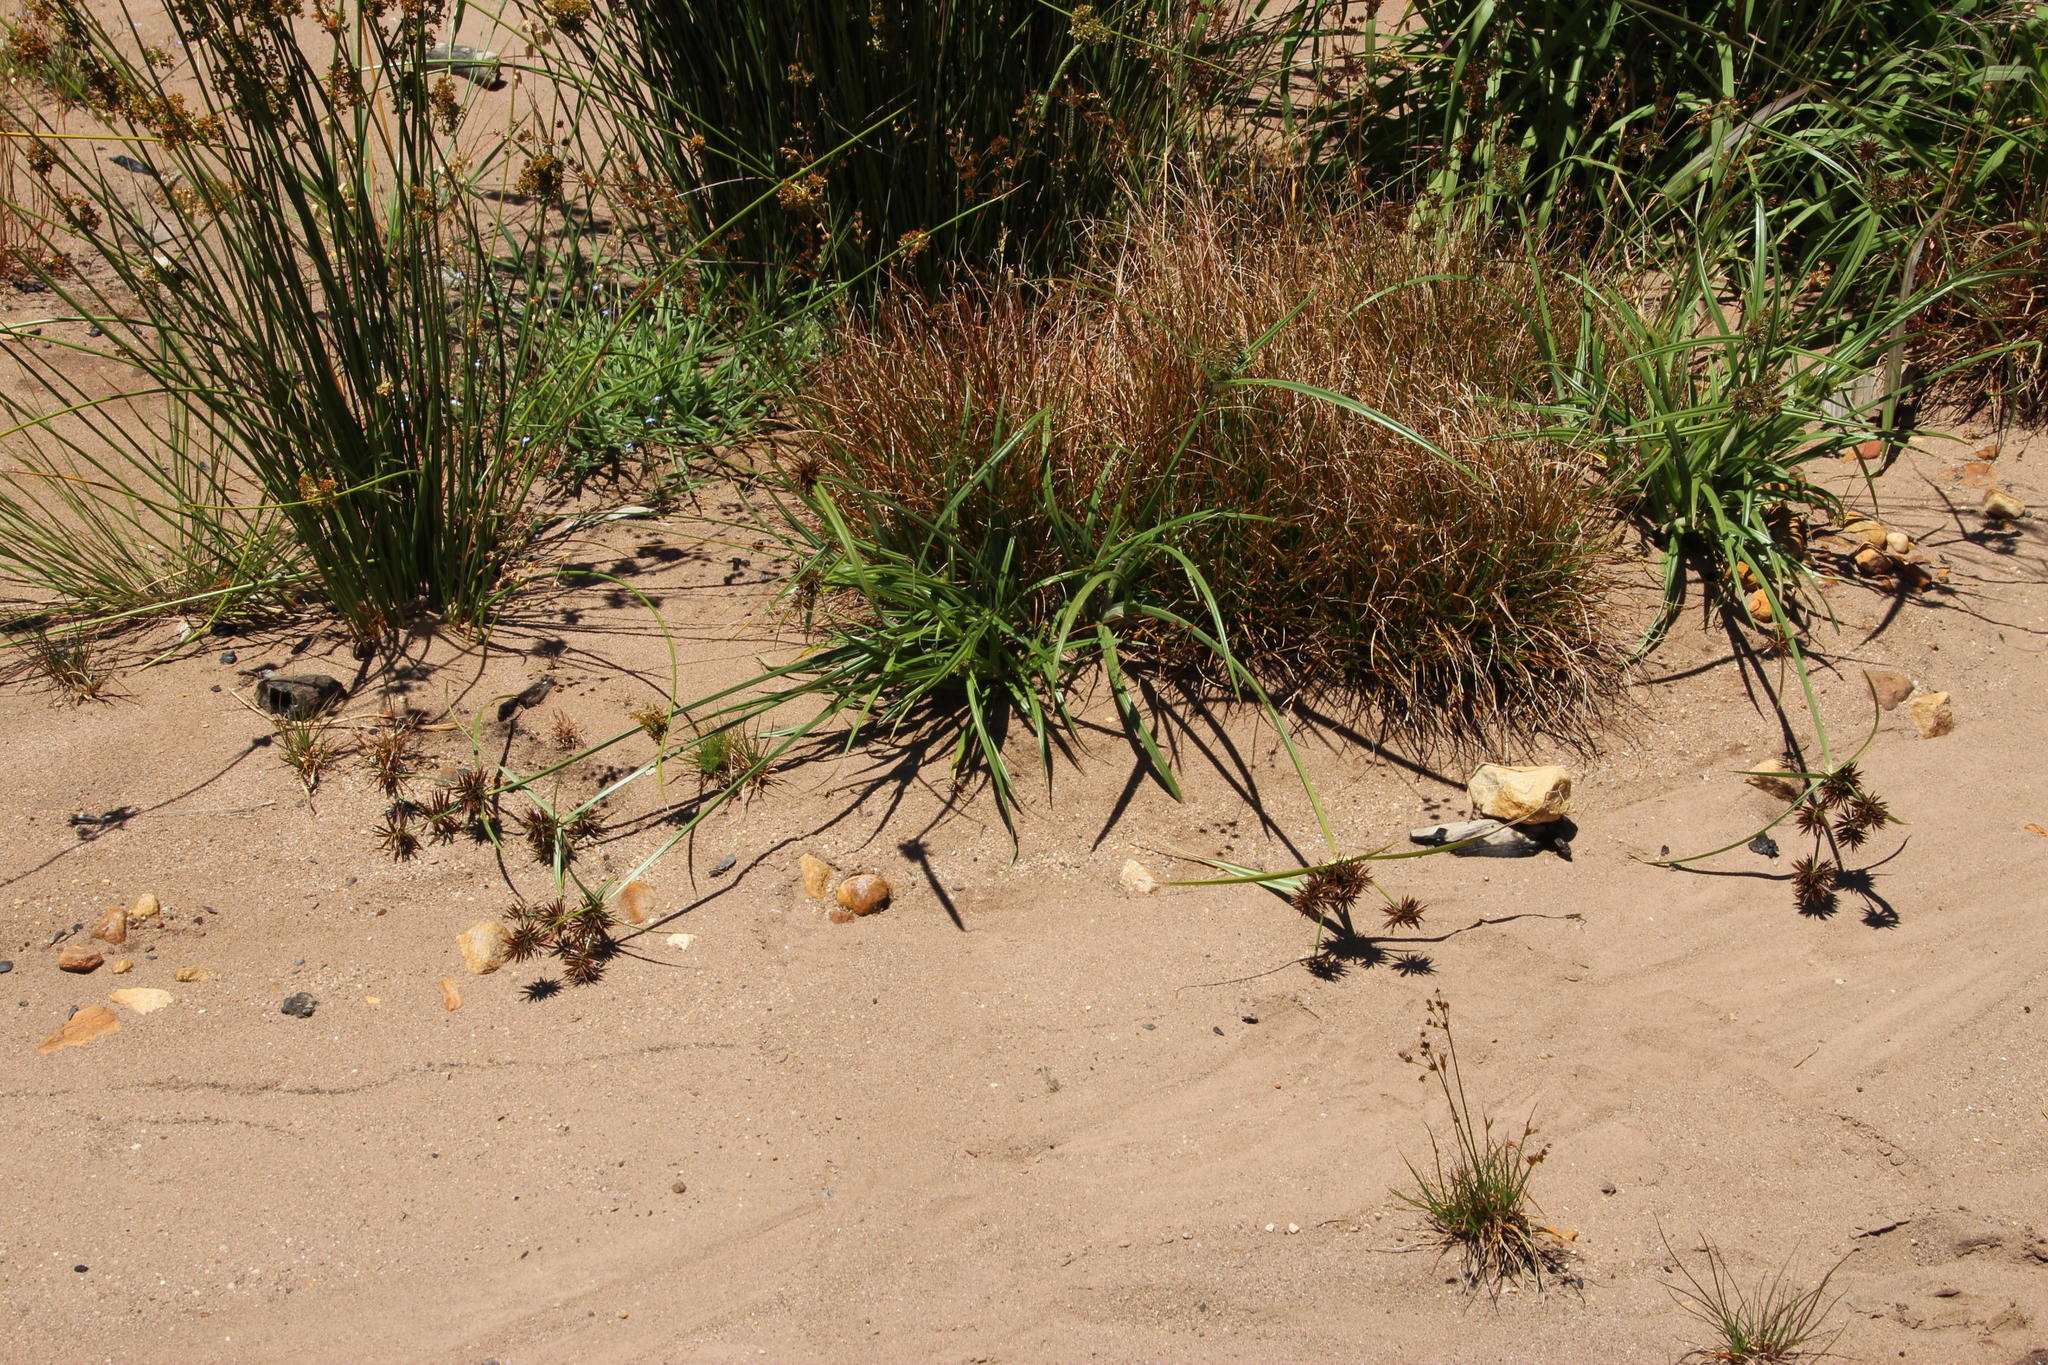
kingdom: Plantae
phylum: Tracheophyta
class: Liliopsida
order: Poales
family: Cyperaceae
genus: Cyperus
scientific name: Cyperus tabularis
